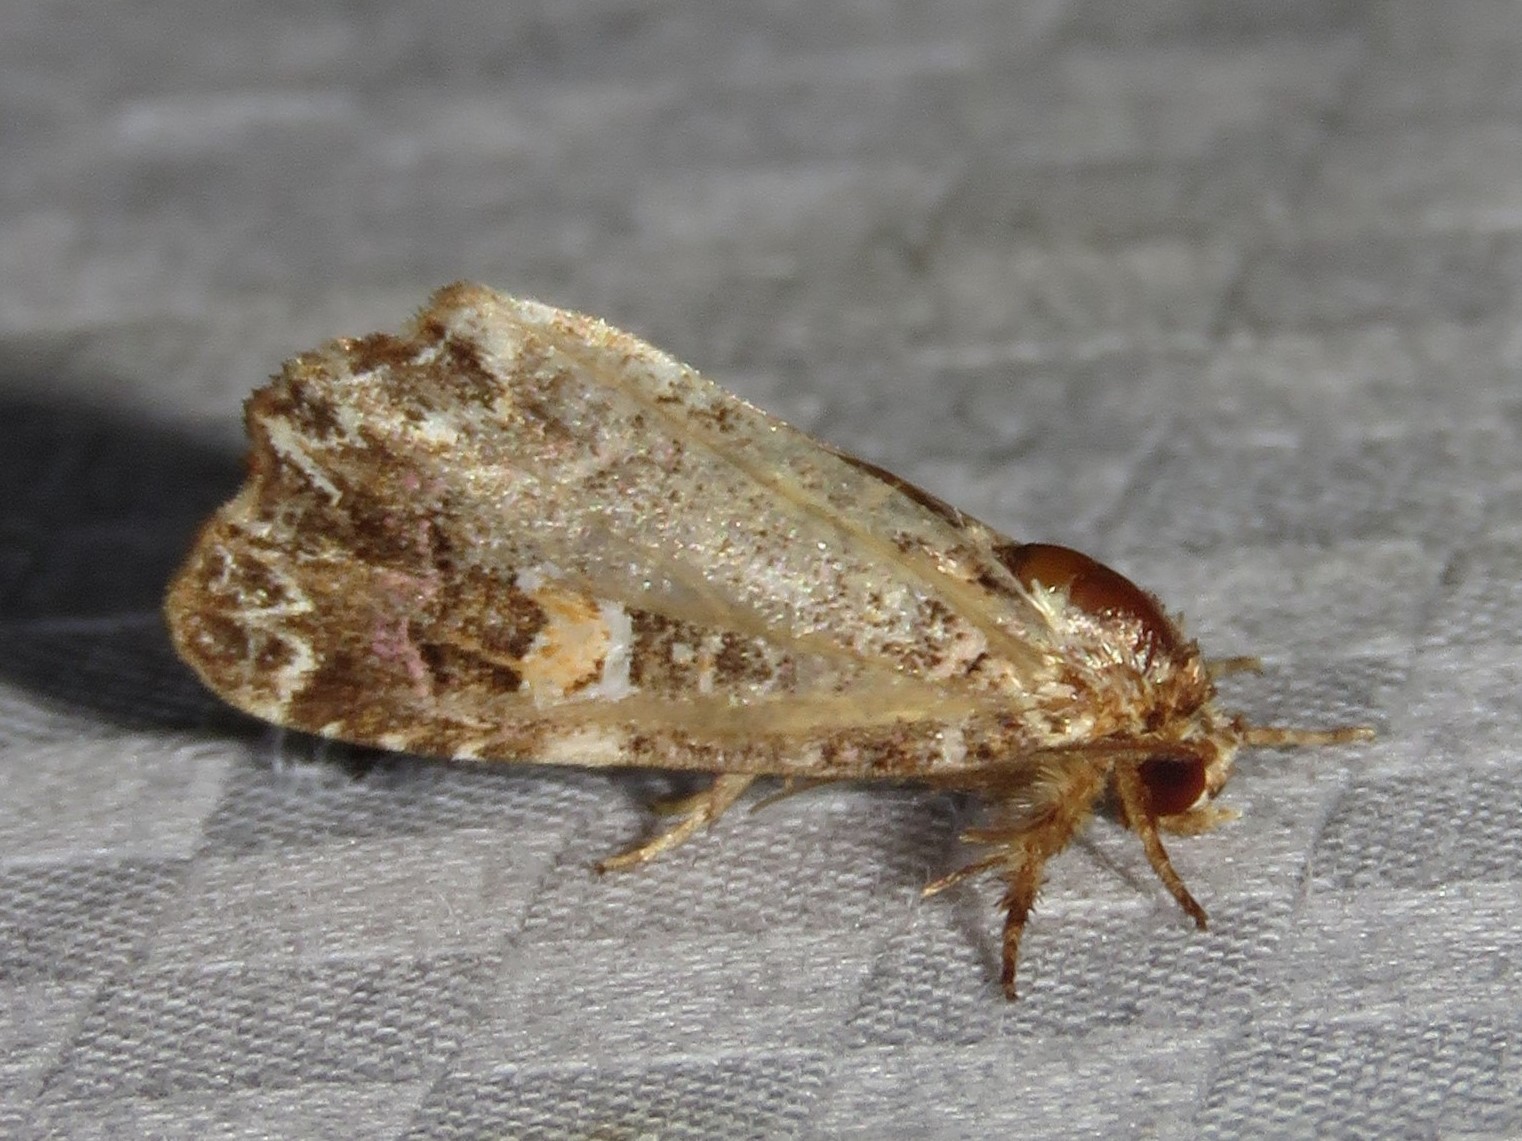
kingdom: Animalia
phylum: Arthropoda
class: Insecta
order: Lepidoptera
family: Noctuidae
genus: Callopistria
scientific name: Callopistria mollissima
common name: Pink-shaded fern moth
